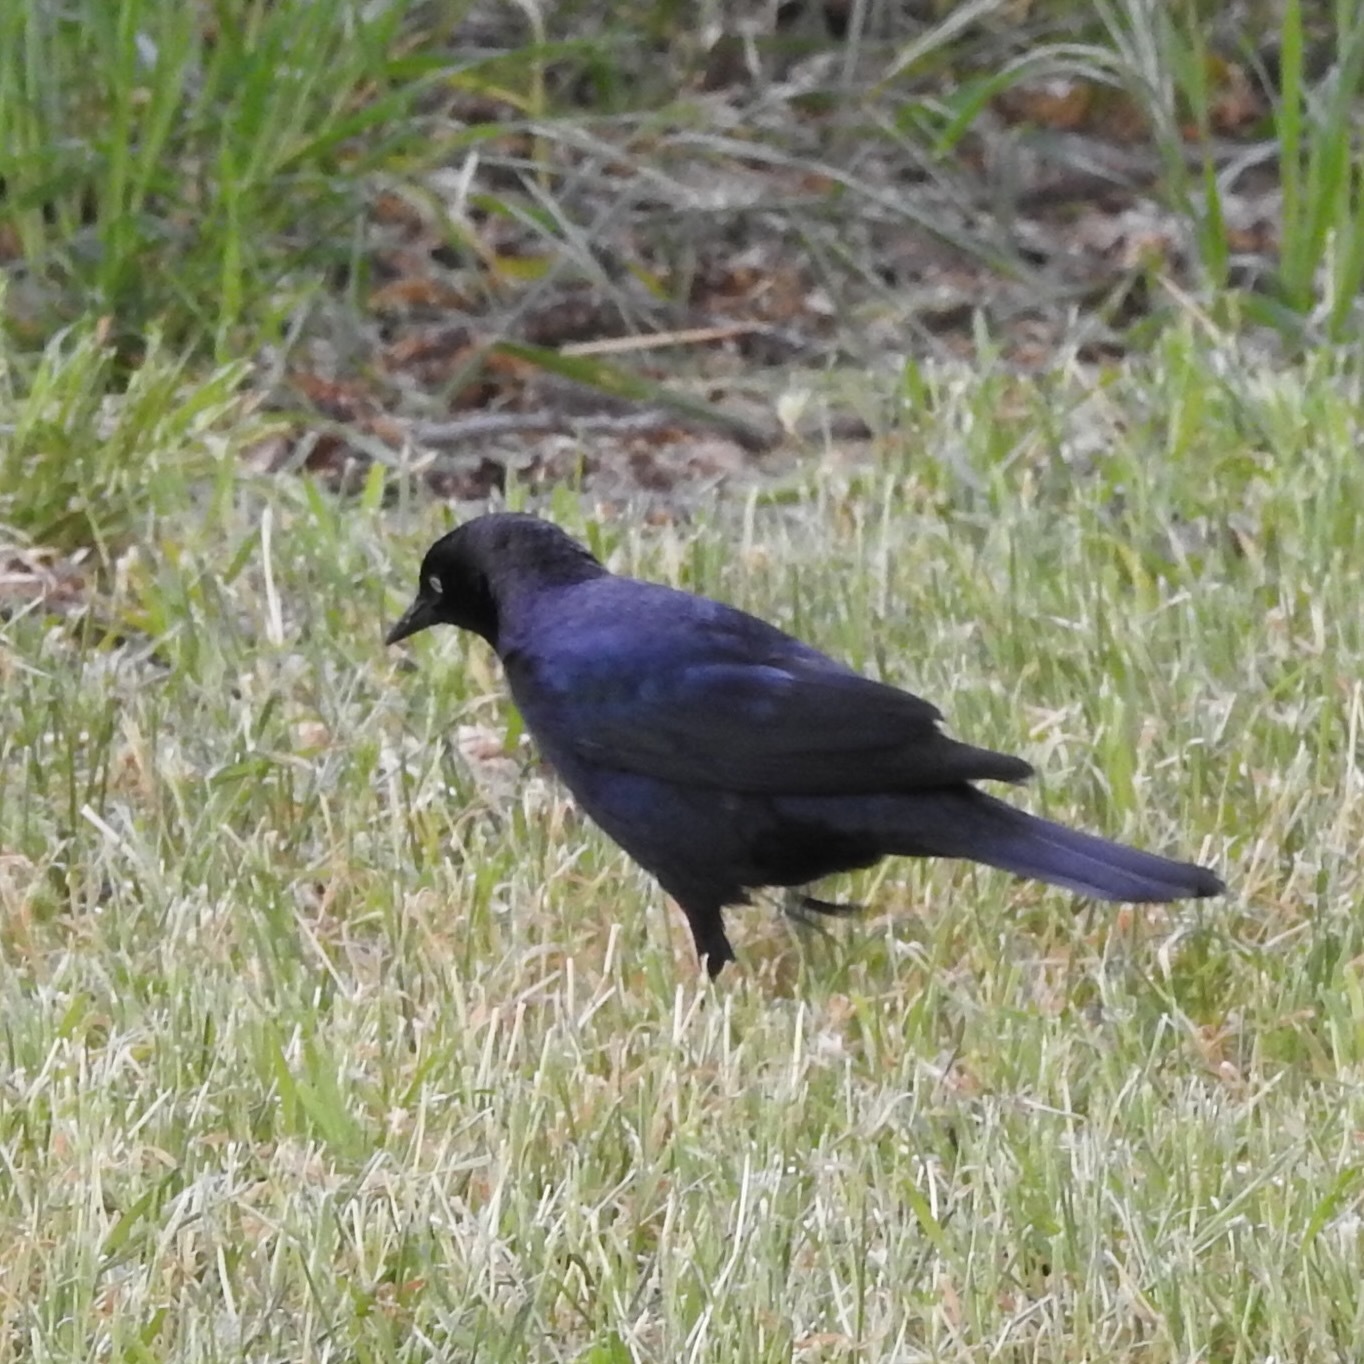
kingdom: Animalia
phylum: Chordata
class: Aves
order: Passeriformes
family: Icteridae
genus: Euphagus
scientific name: Euphagus cyanocephalus
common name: Brewer's blackbird
